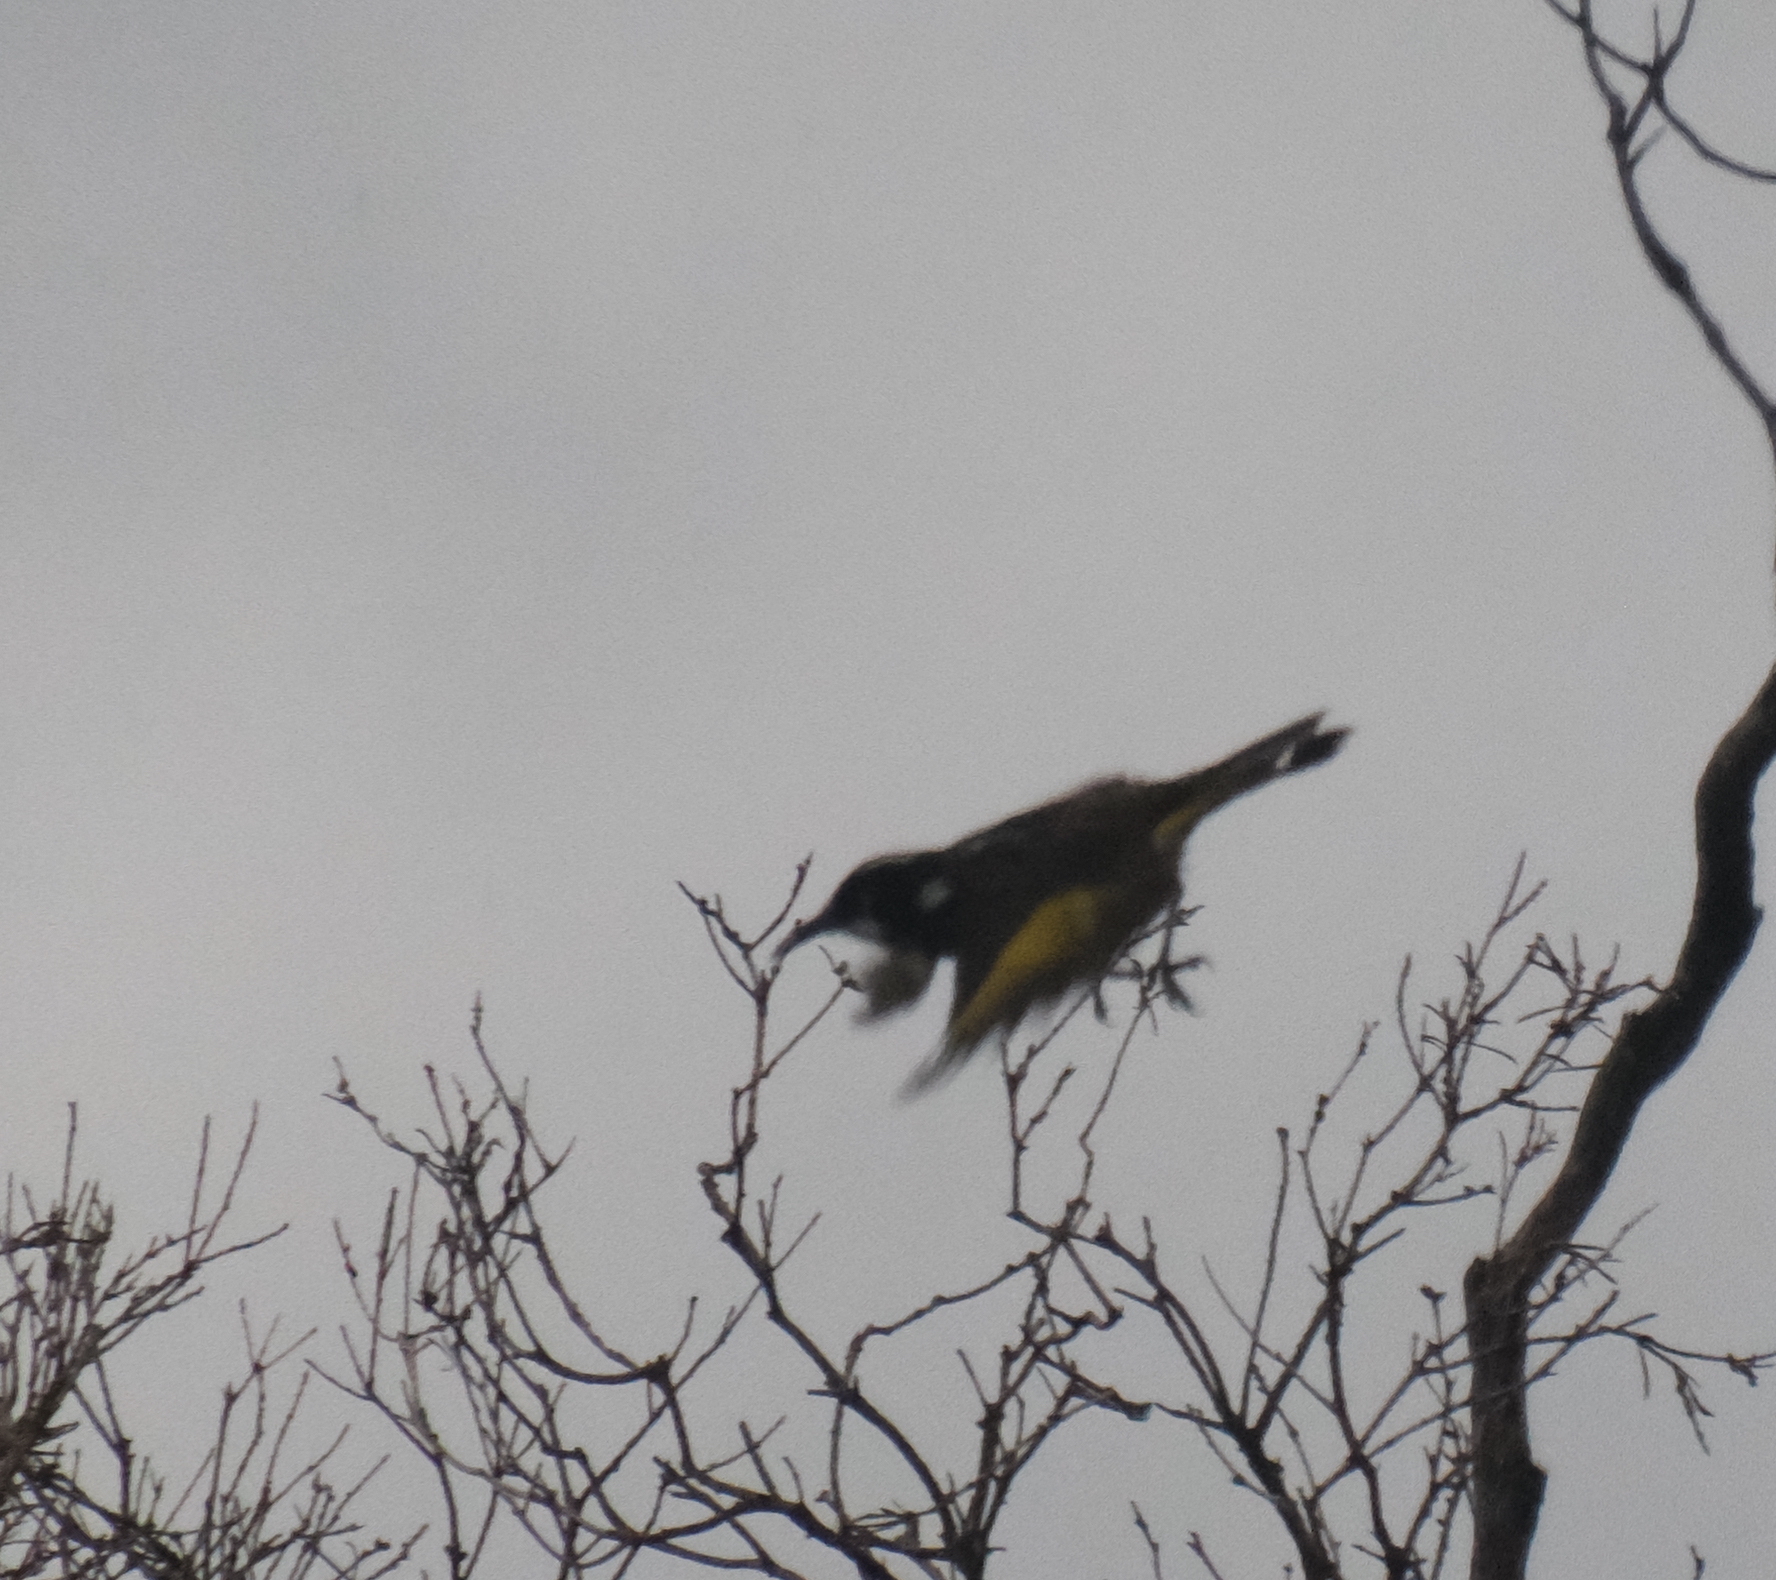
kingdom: Animalia
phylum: Chordata
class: Aves
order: Passeriformes
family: Meliphagidae
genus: Phylidonyris
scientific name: Phylidonyris novaehollandiae
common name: New holland honeyeater
